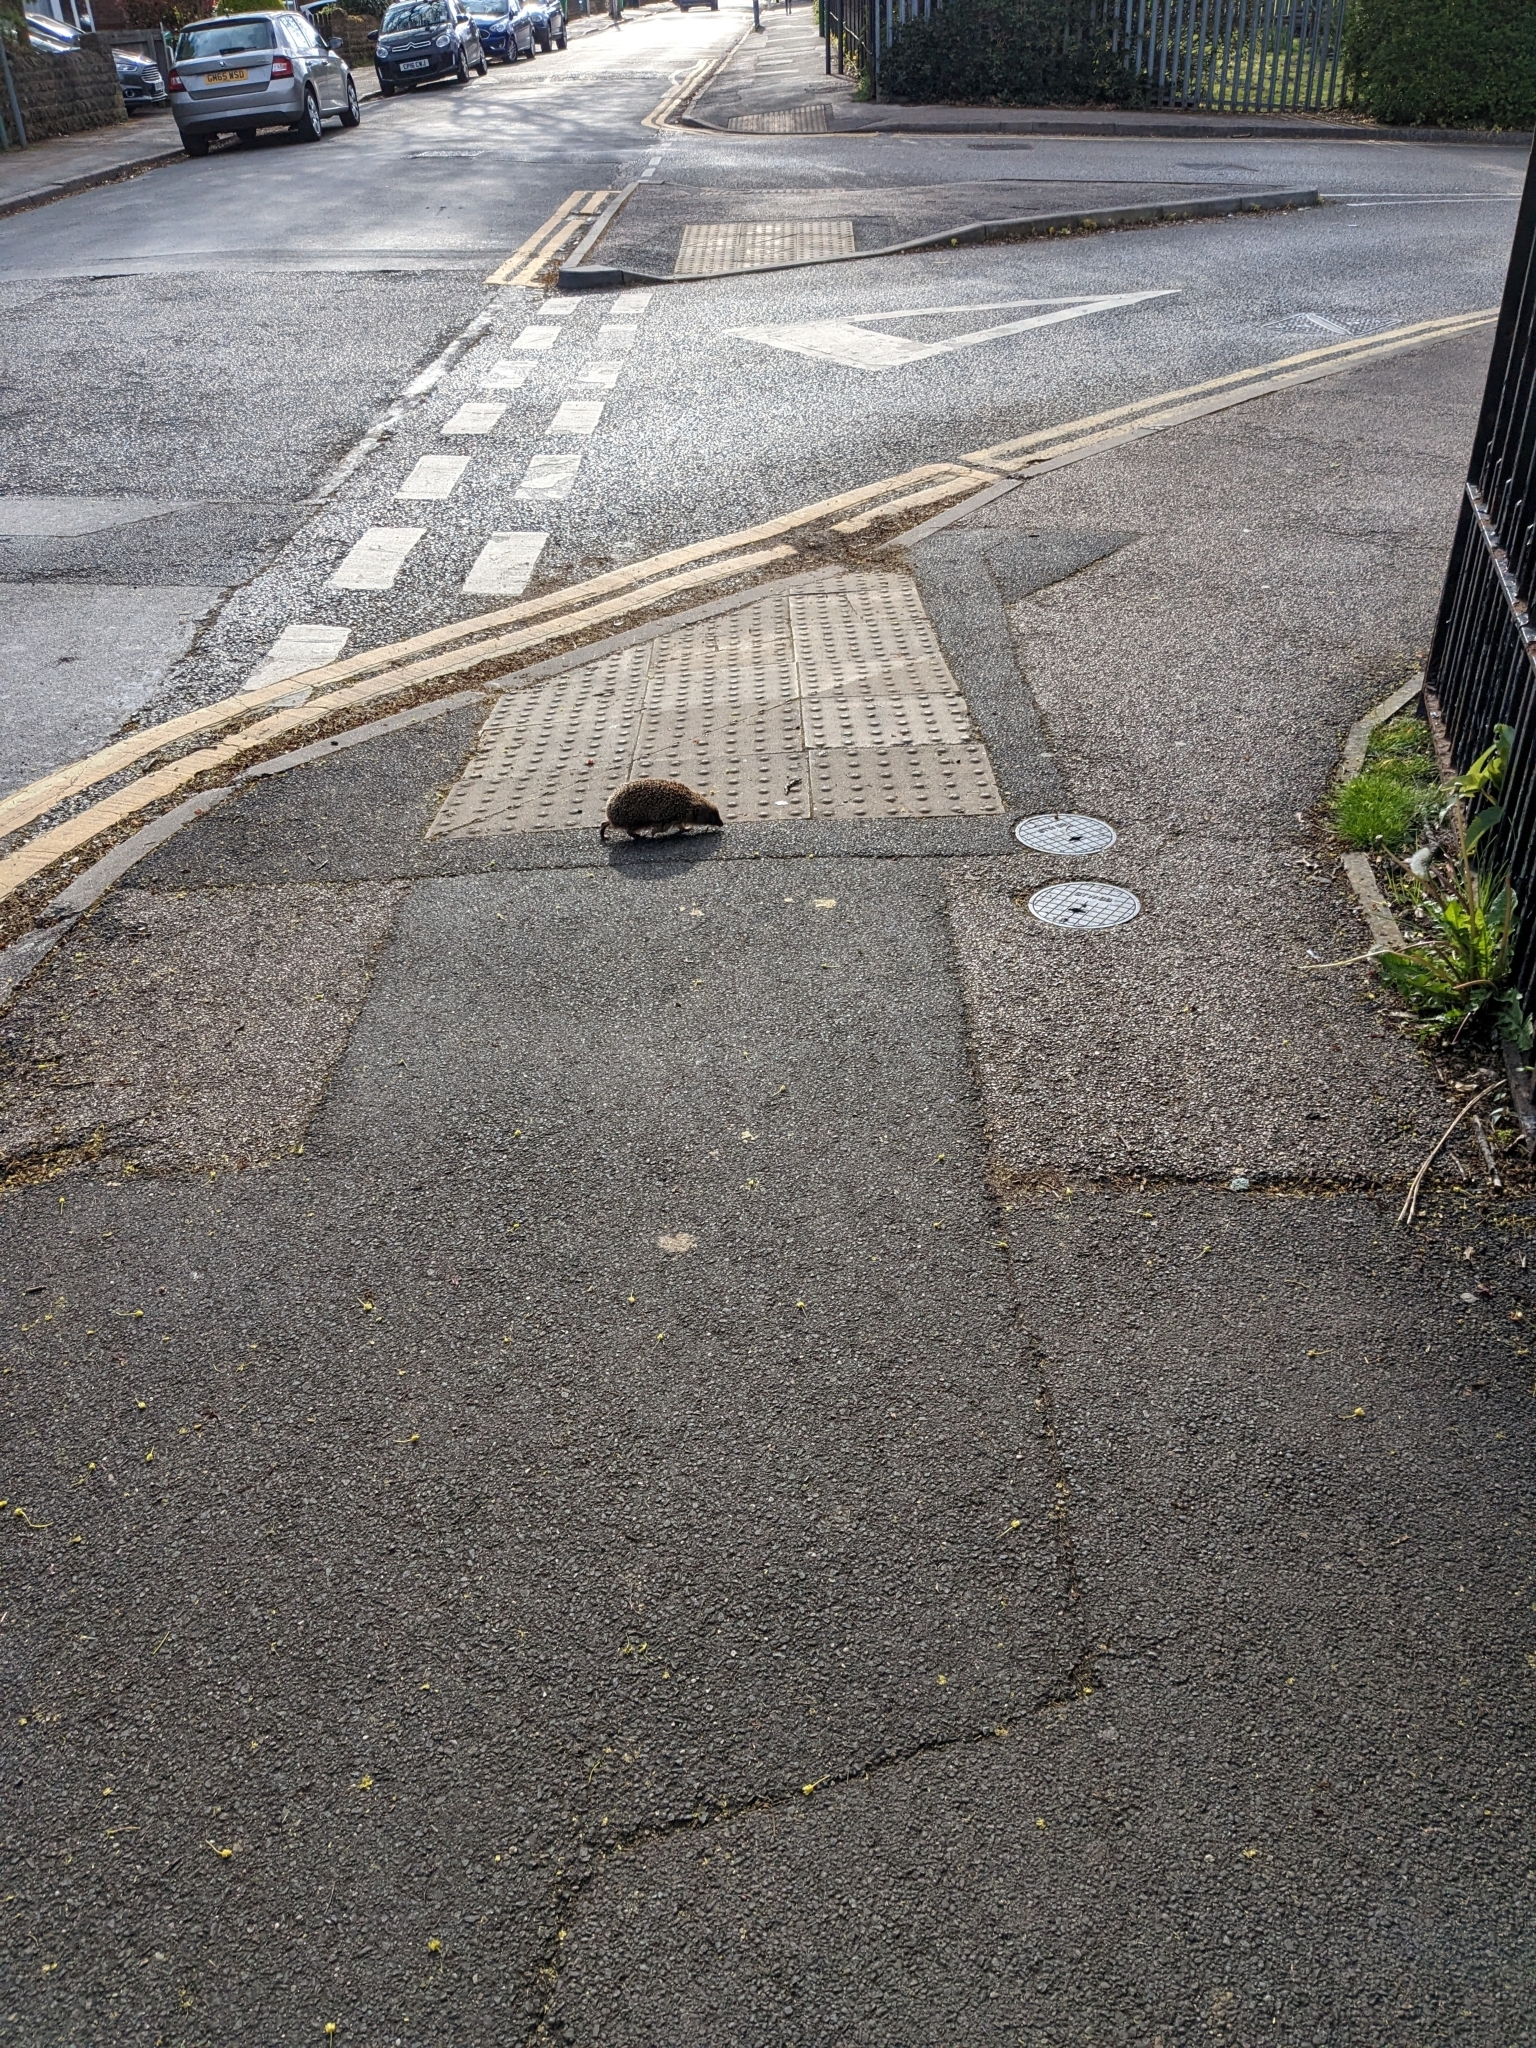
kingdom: Animalia
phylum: Chordata
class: Mammalia
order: Erinaceomorpha
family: Erinaceidae
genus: Erinaceus
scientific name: Erinaceus europaeus
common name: West european hedgehog
